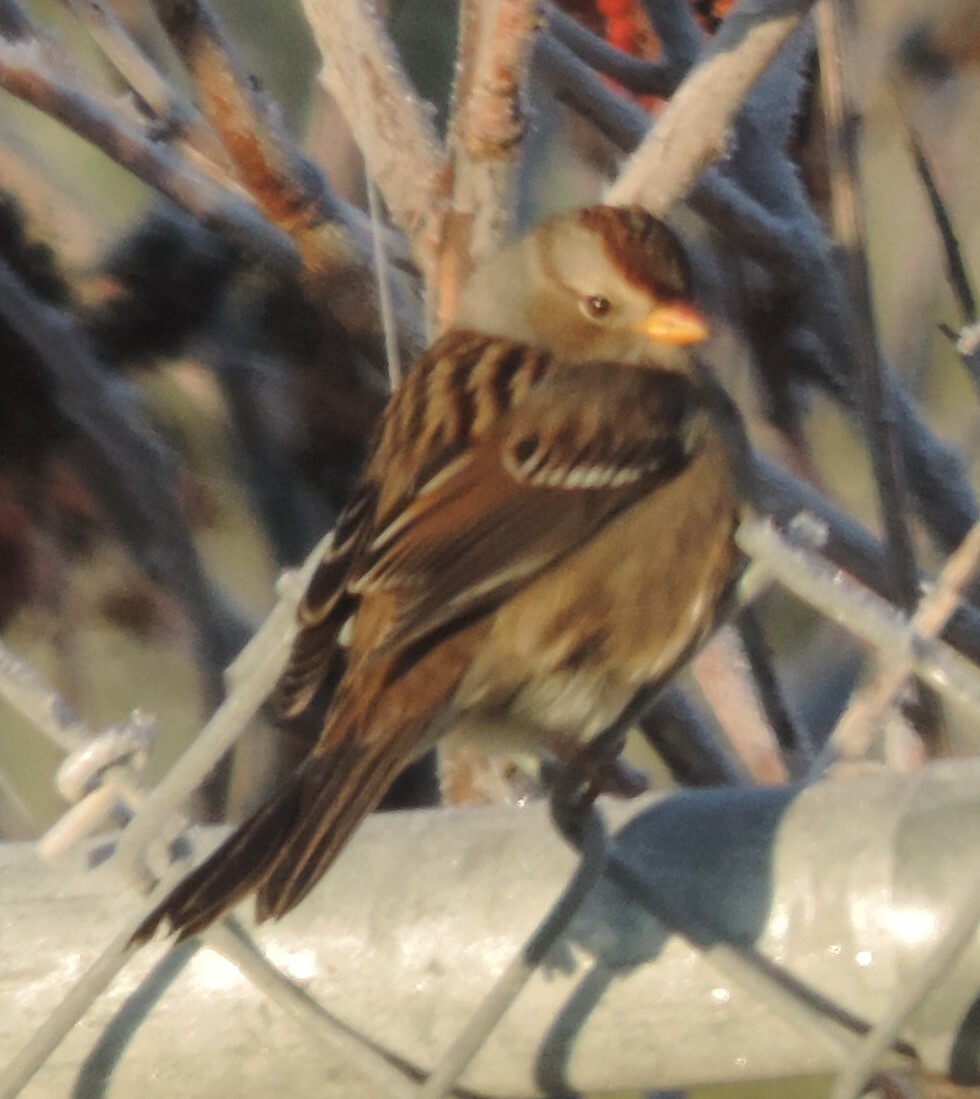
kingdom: Animalia
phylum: Chordata
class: Aves
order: Passeriformes
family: Passerellidae
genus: Zonotrichia
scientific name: Zonotrichia leucophrys
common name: White-crowned sparrow
